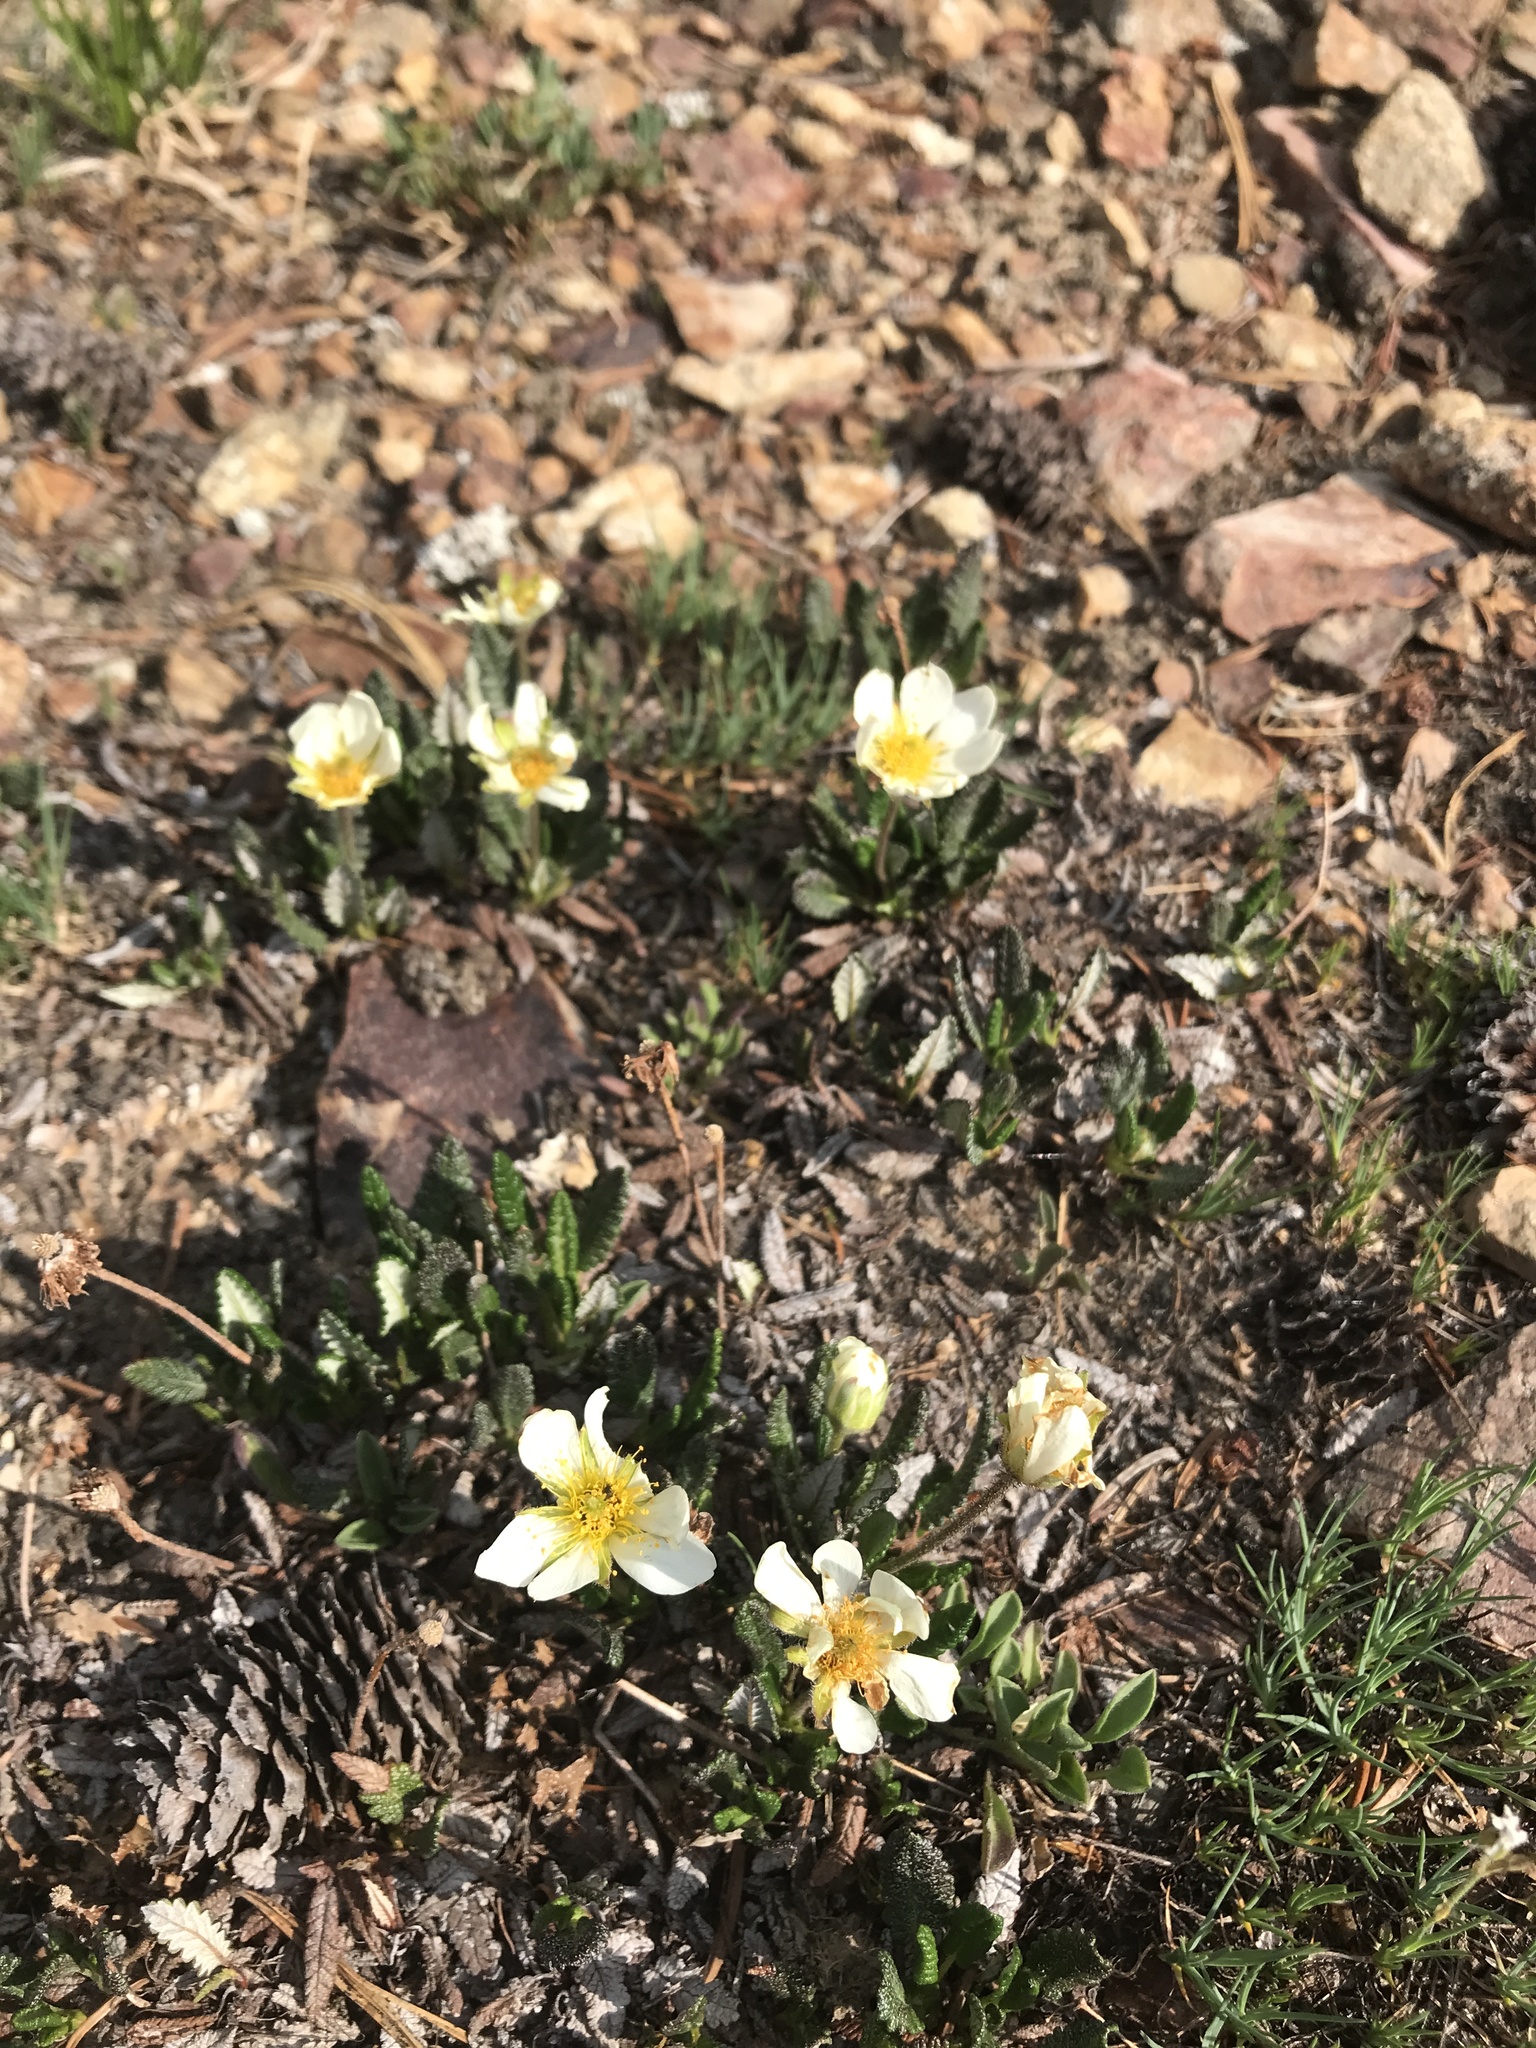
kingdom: Plantae
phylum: Tracheophyta
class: Magnoliopsida
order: Rosales
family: Rosaceae
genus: Dryas
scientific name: Dryas octopetala
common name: Eight-petal mountain-avens
